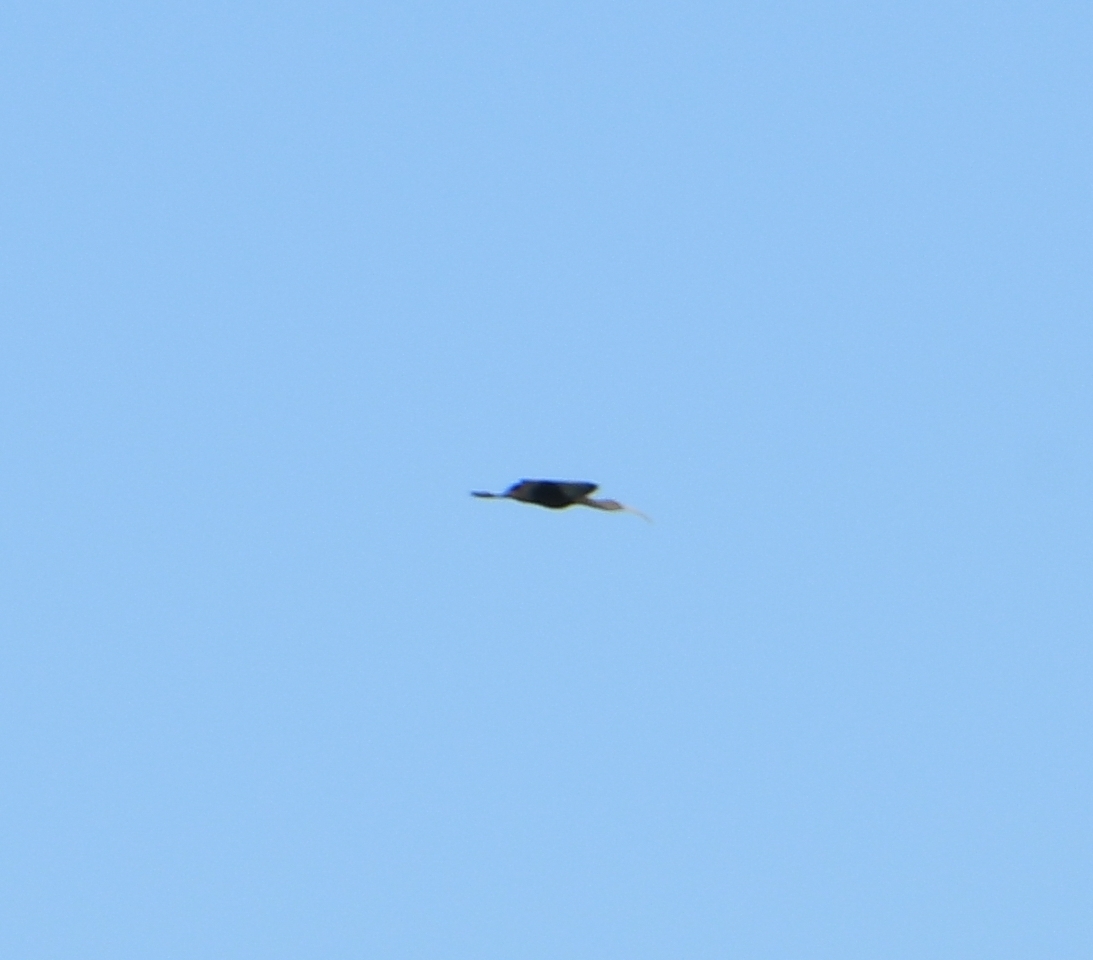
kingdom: Animalia
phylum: Chordata
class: Aves
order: Pelecaniformes
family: Threskiornithidae
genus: Plegadis
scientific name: Plegadis chihi
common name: White-faced ibis
